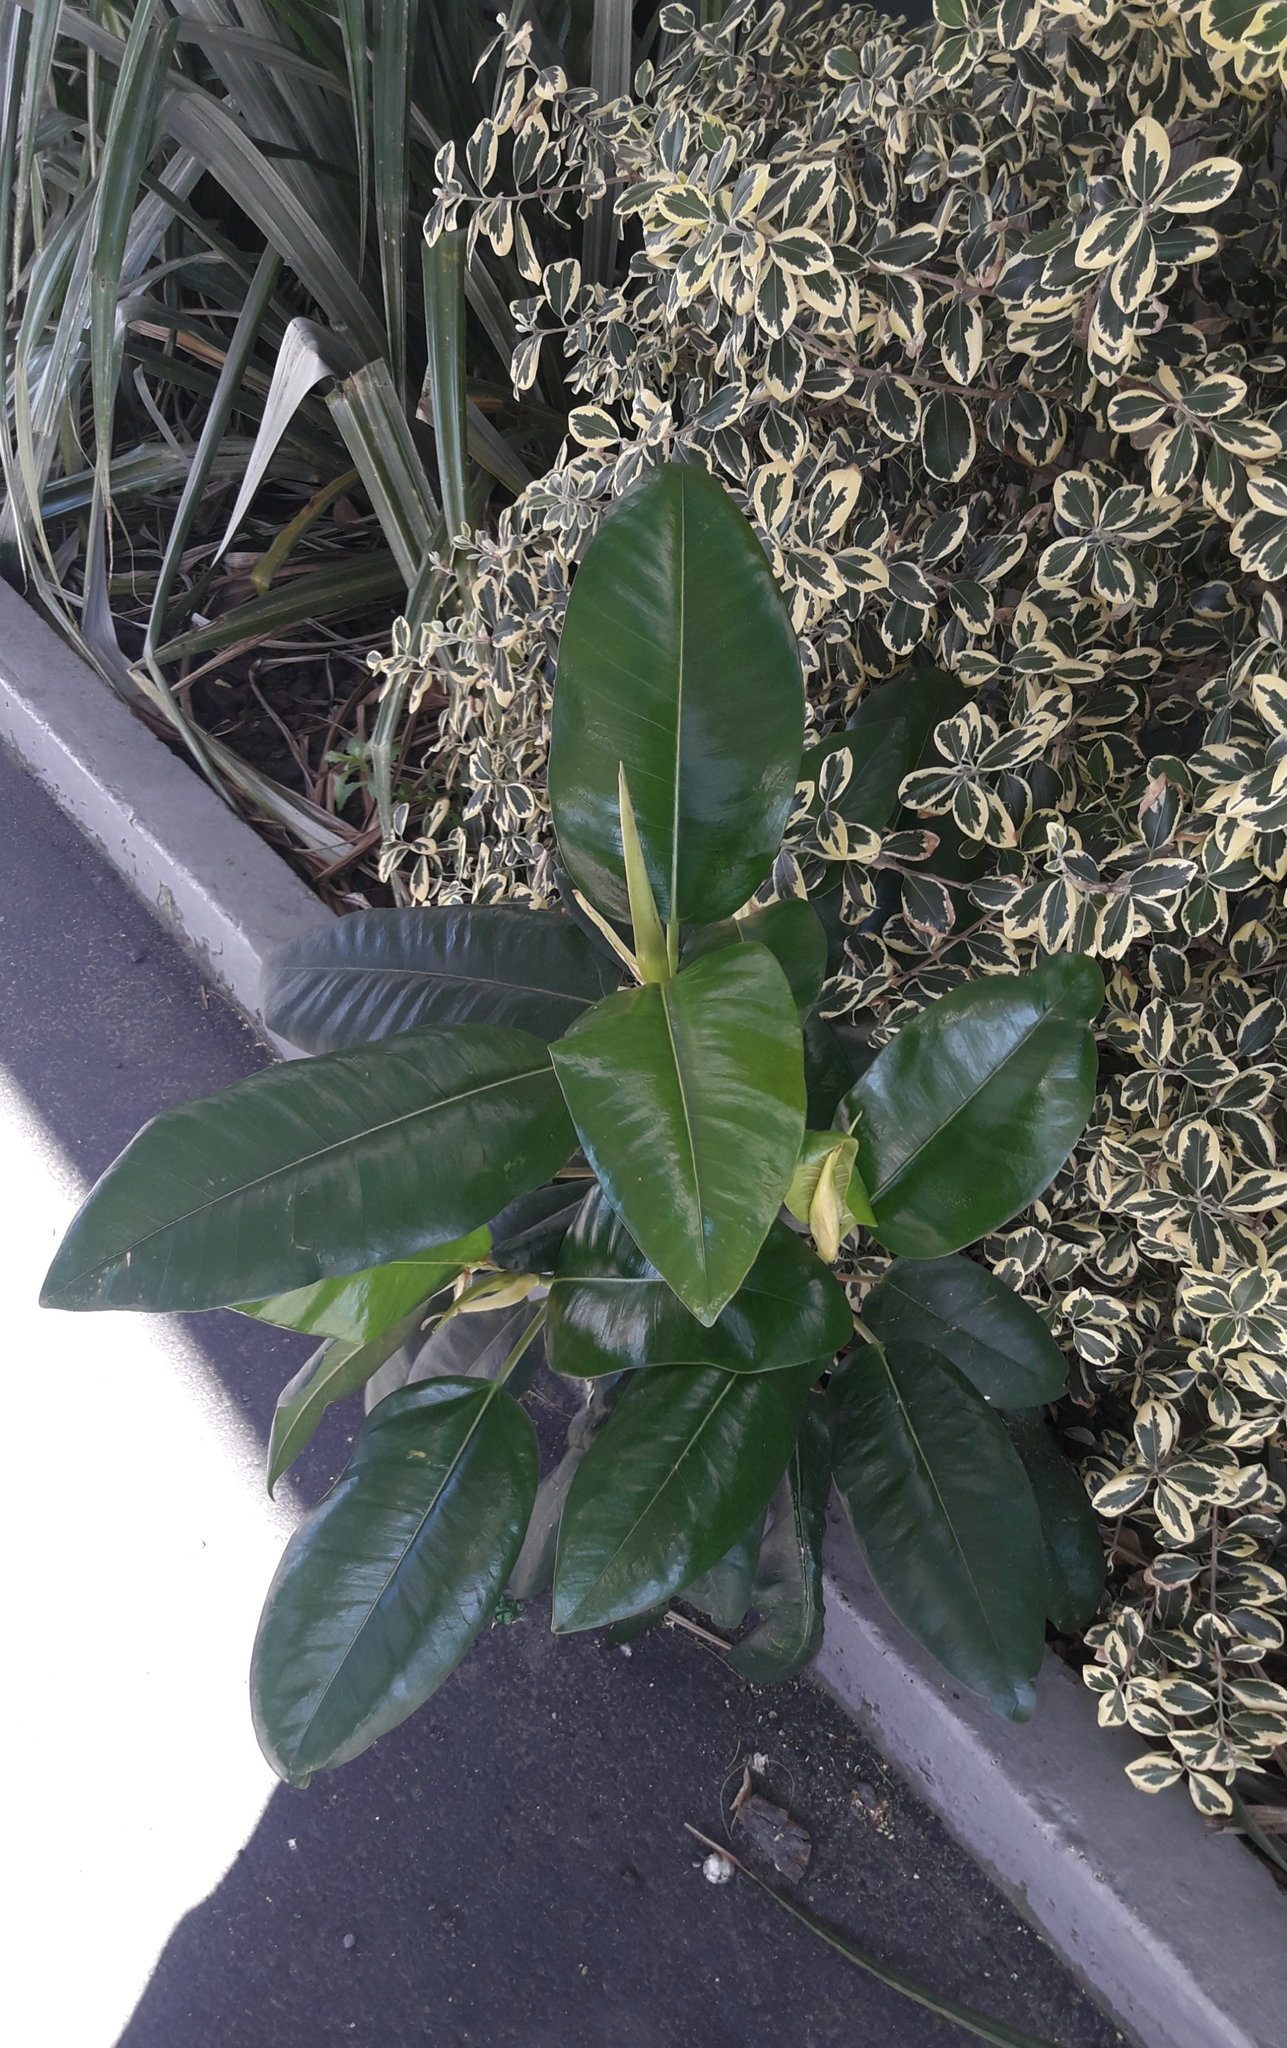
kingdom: Plantae
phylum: Tracheophyta
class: Magnoliopsida
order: Rosales
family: Moraceae
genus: Ficus
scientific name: Ficus macrophylla
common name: Moreton bay fig
